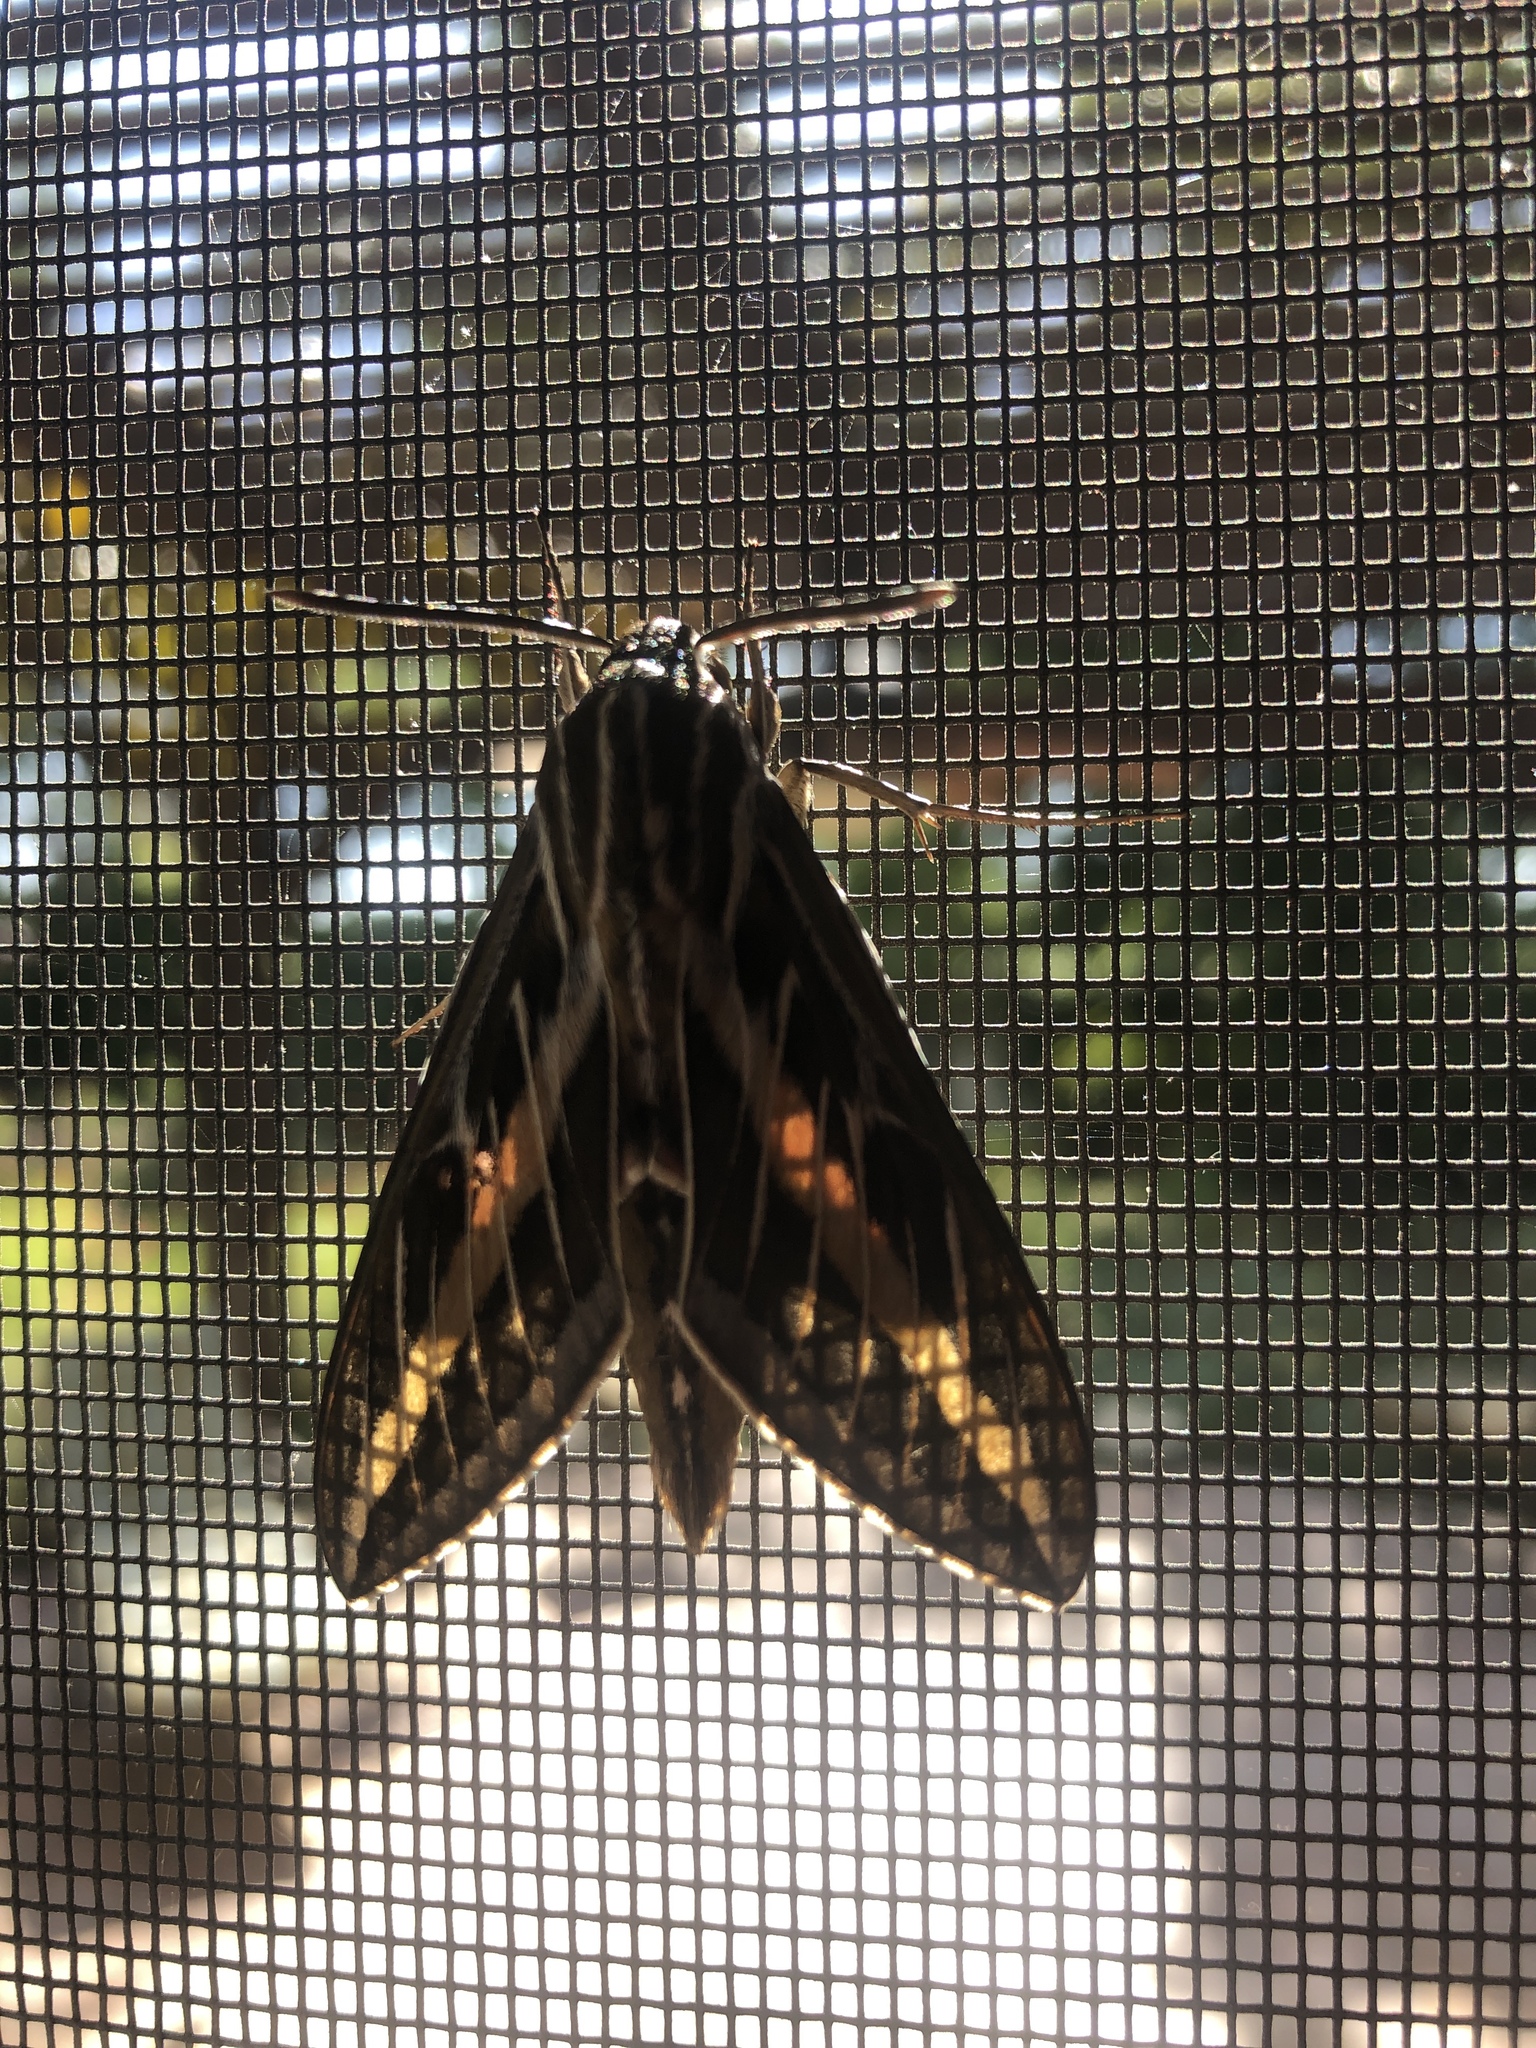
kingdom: Animalia
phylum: Arthropoda
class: Insecta
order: Lepidoptera
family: Sphingidae
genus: Hyles
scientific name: Hyles lineata
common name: White-lined sphinx
